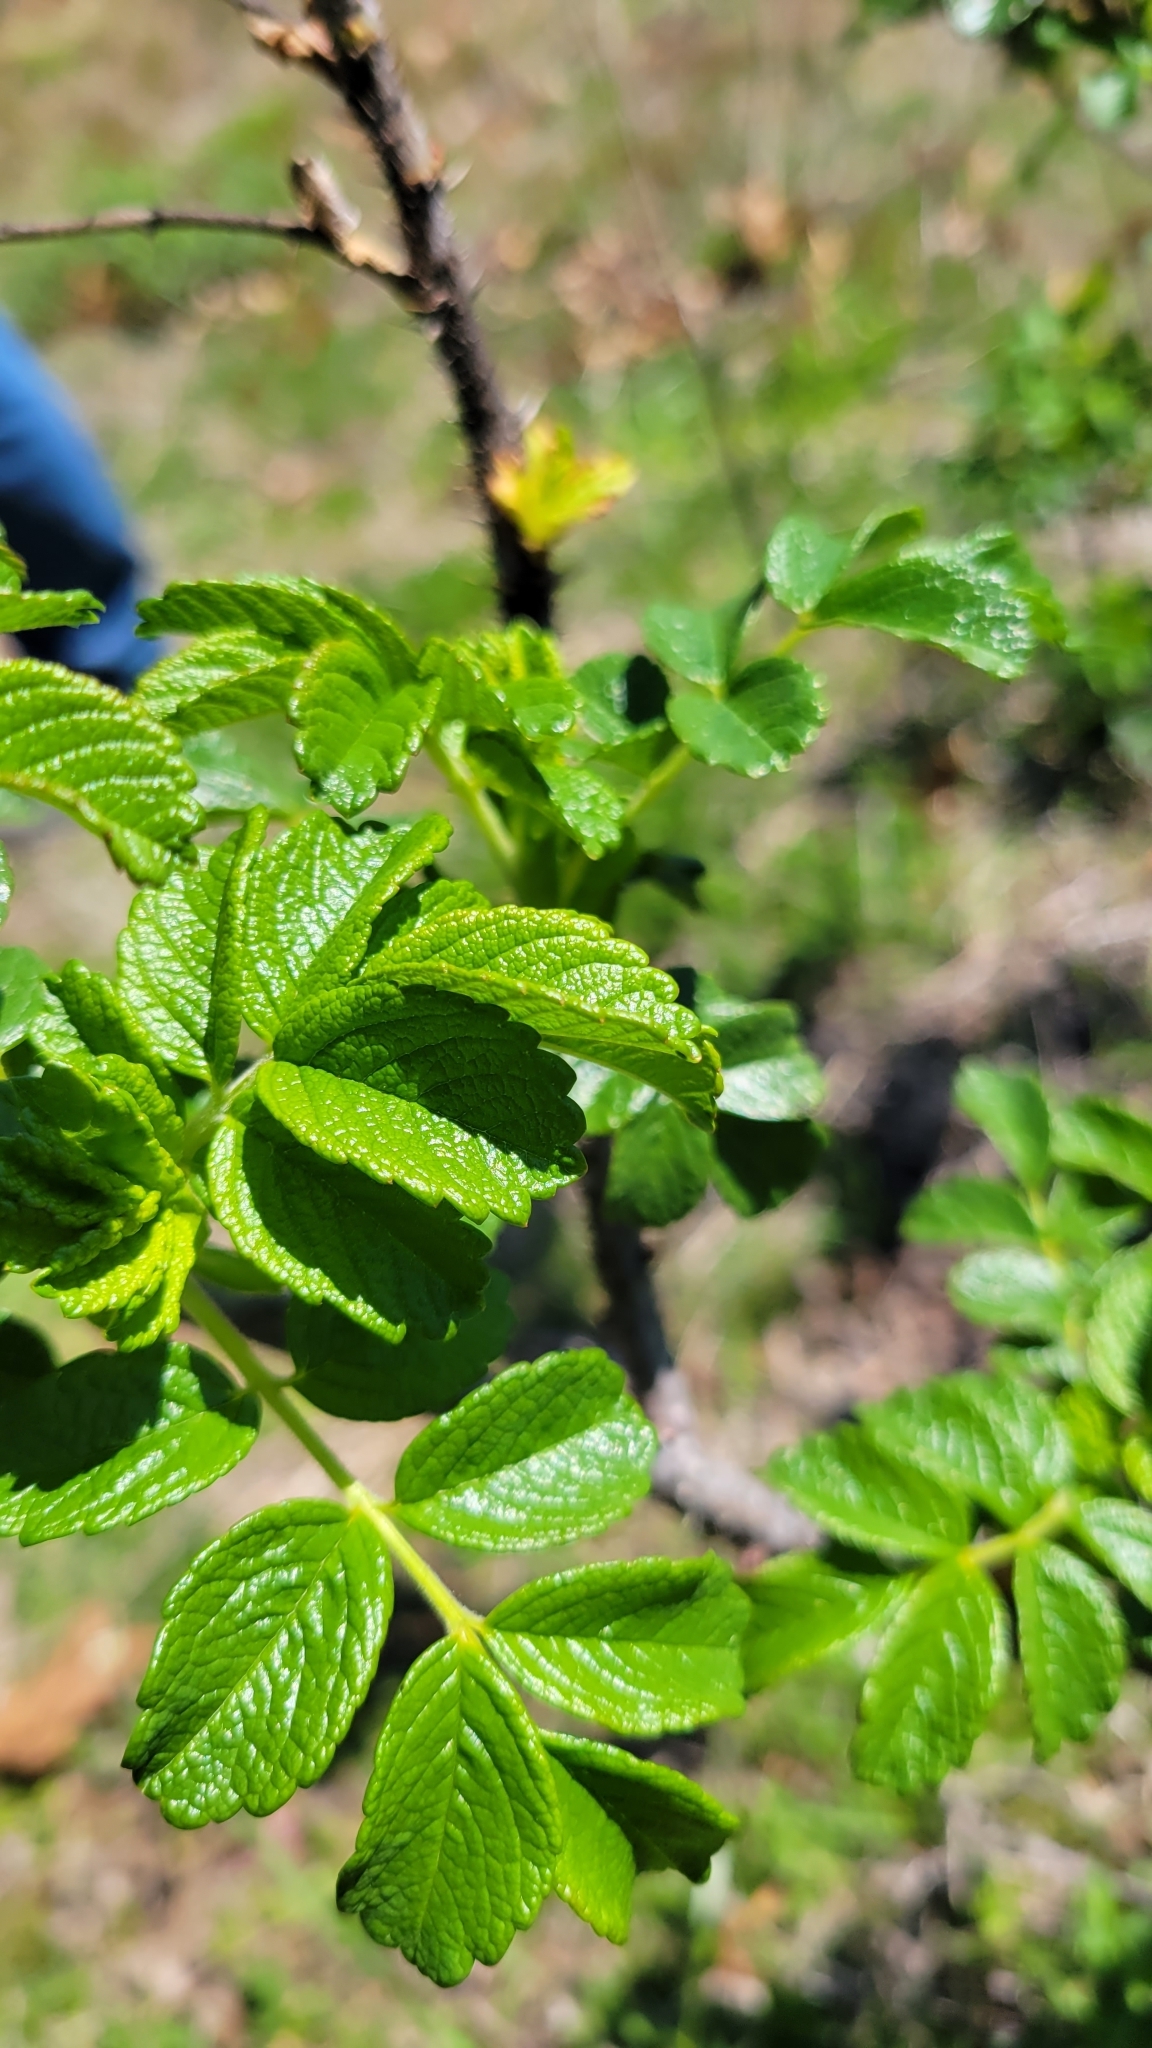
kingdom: Plantae
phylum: Tracheophyta
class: Magnoliopsida
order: Rosales
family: Rosaceae
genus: Rosa
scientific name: Rosa rugosa
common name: Japanese rose
